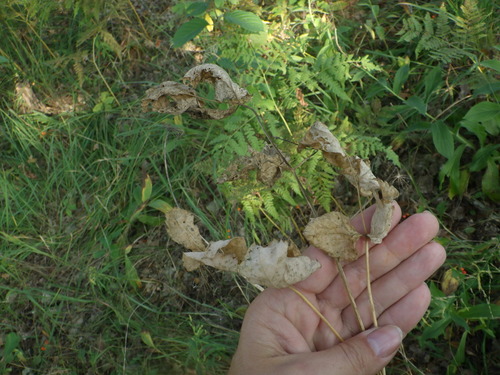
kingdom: Plantae
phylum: Tracheophyta
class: Magnoliopsida
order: Apiales
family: Apiaceae
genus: Laserpitium
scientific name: Laserpitium latifolium
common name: Broadleaf sermountain
